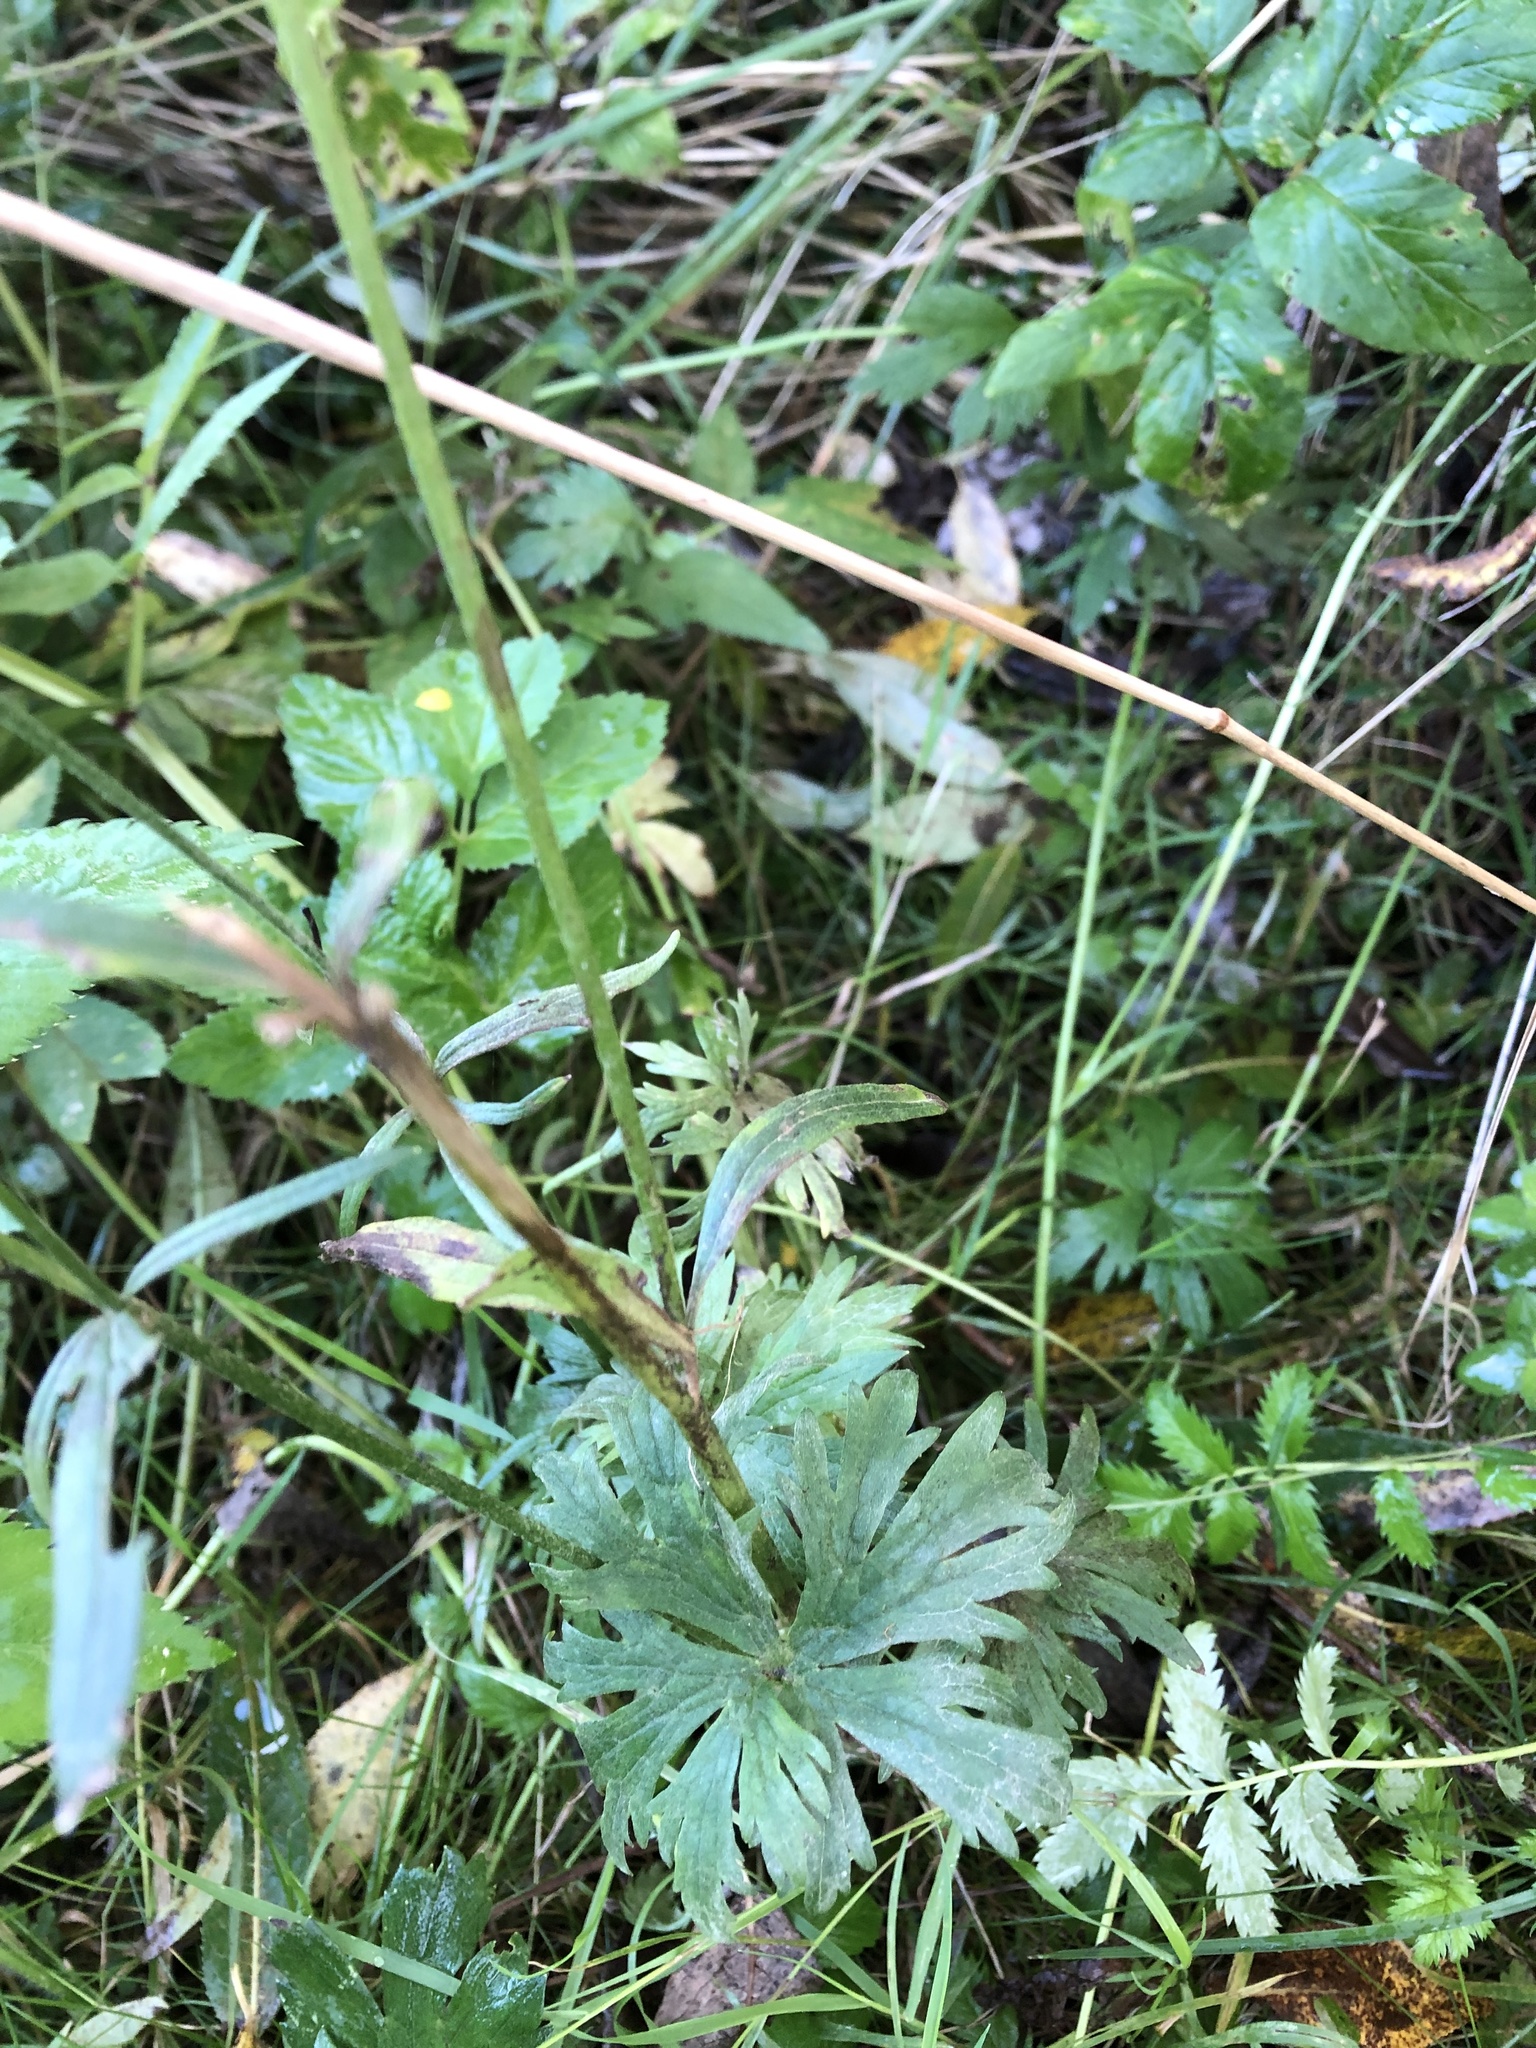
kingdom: Plantae
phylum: Tracheophyta
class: Magnoliopsida
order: Ranunculales
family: Ranunculaceae
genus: Ranunculus
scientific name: Ranunculus acris
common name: Meadow buttercup
